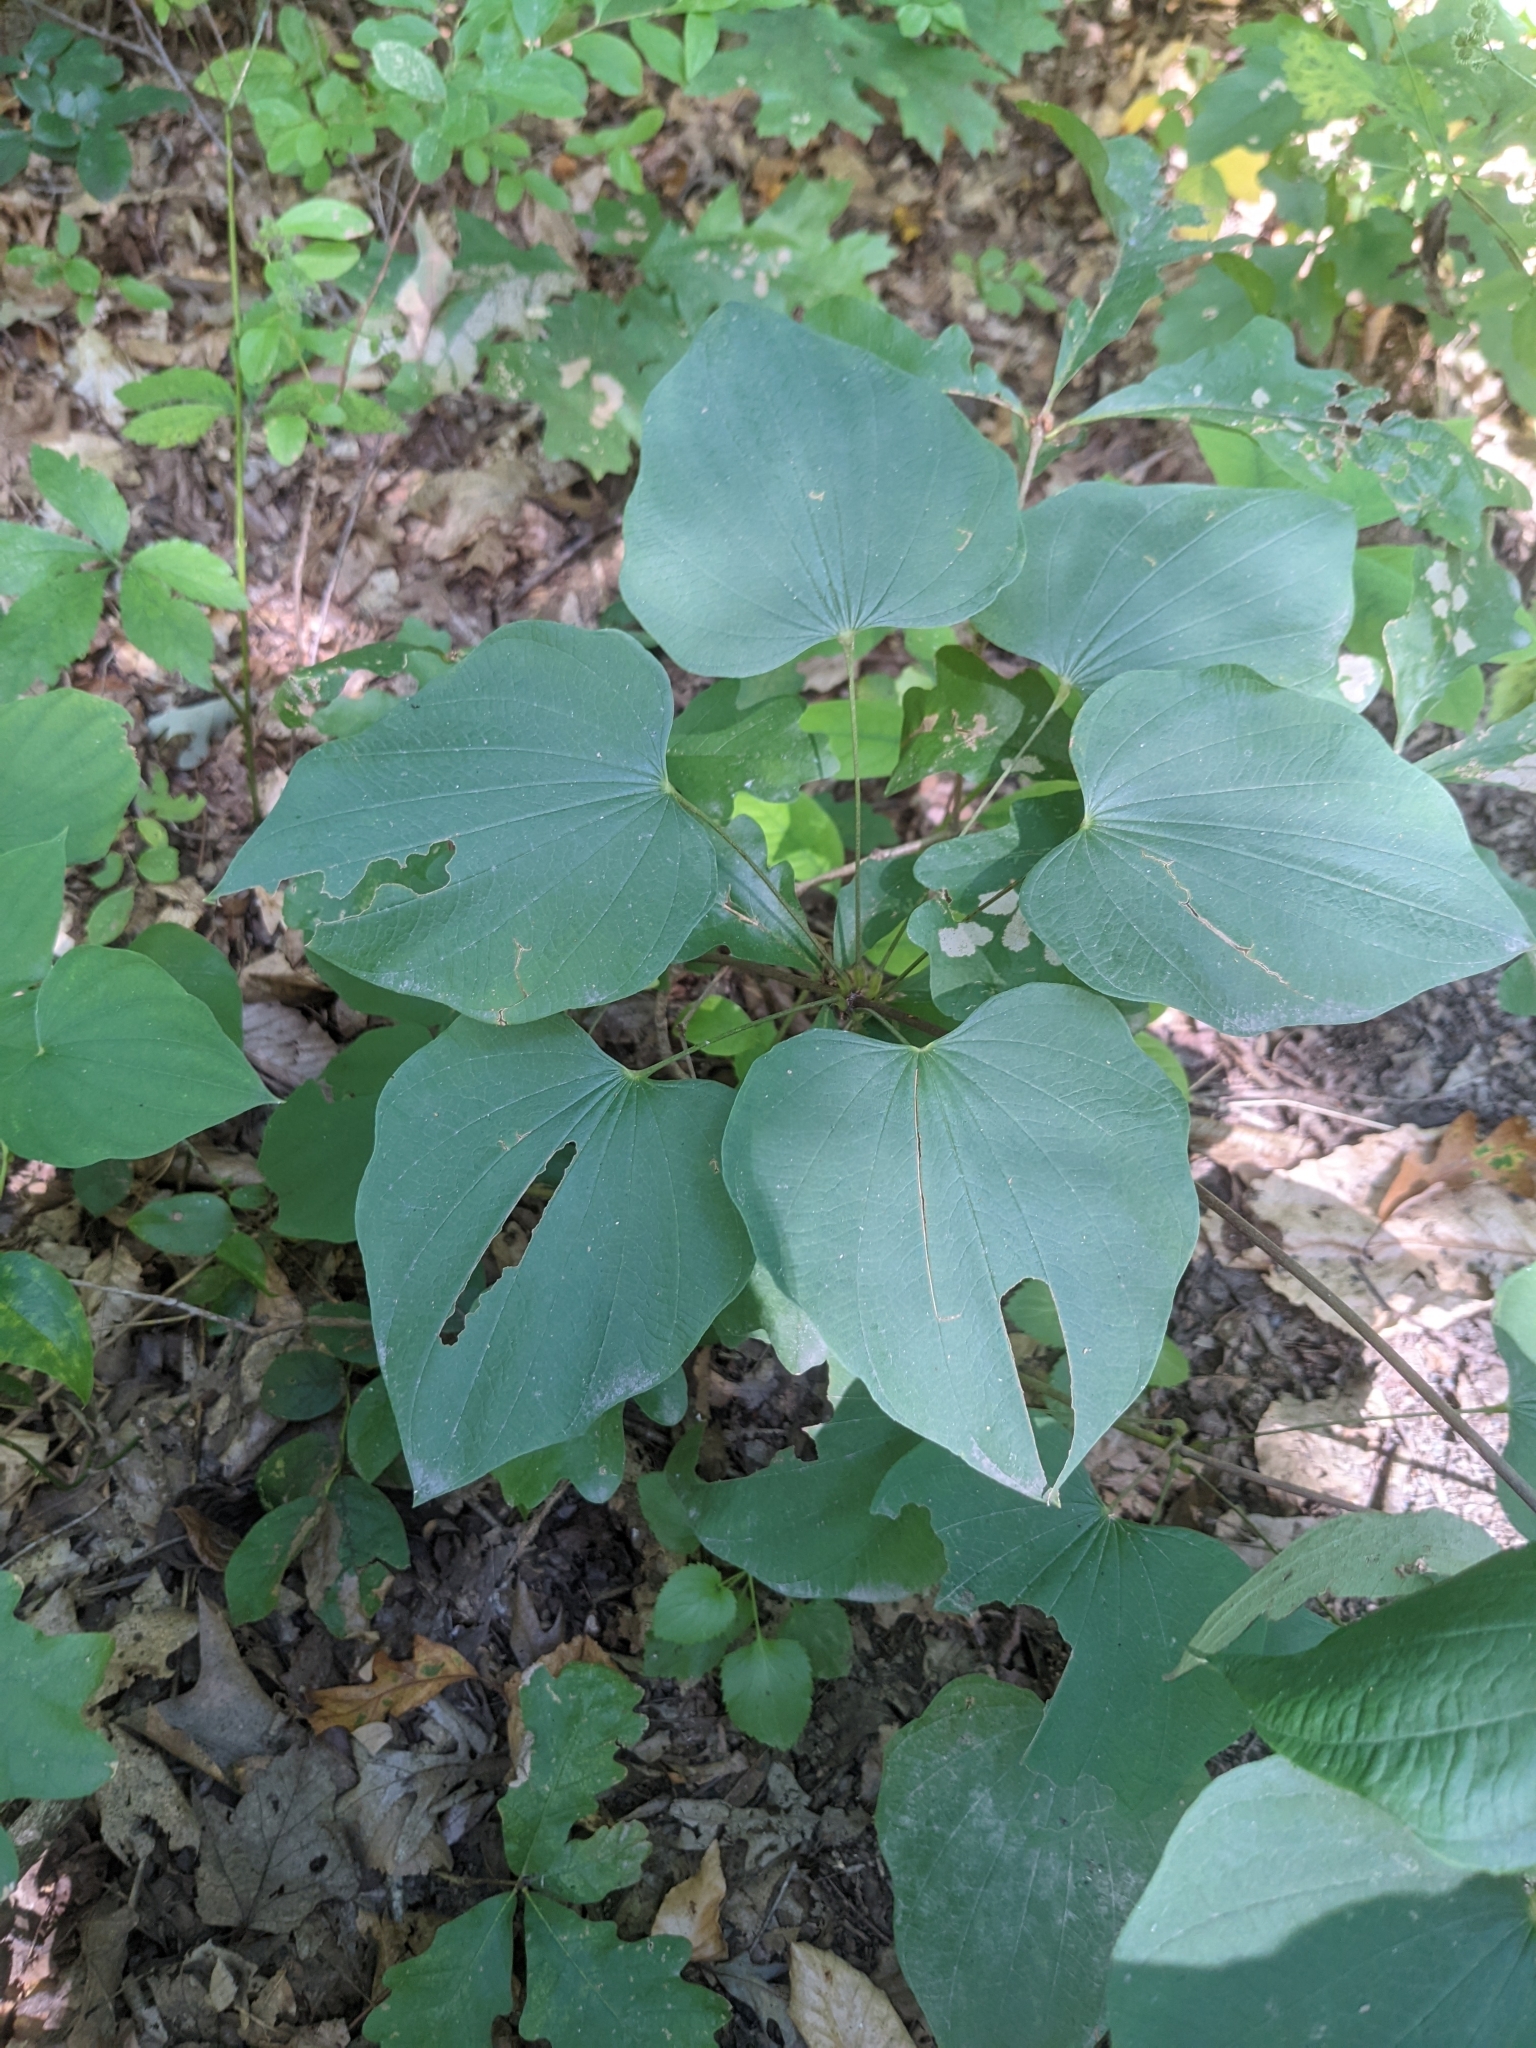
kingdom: Plantae
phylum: Tracheophyta
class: Liliopsida
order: Dioscoreales
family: Dioscoreaceae
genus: Dioscorea
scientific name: Dioscorea villosa
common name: Wild yam
